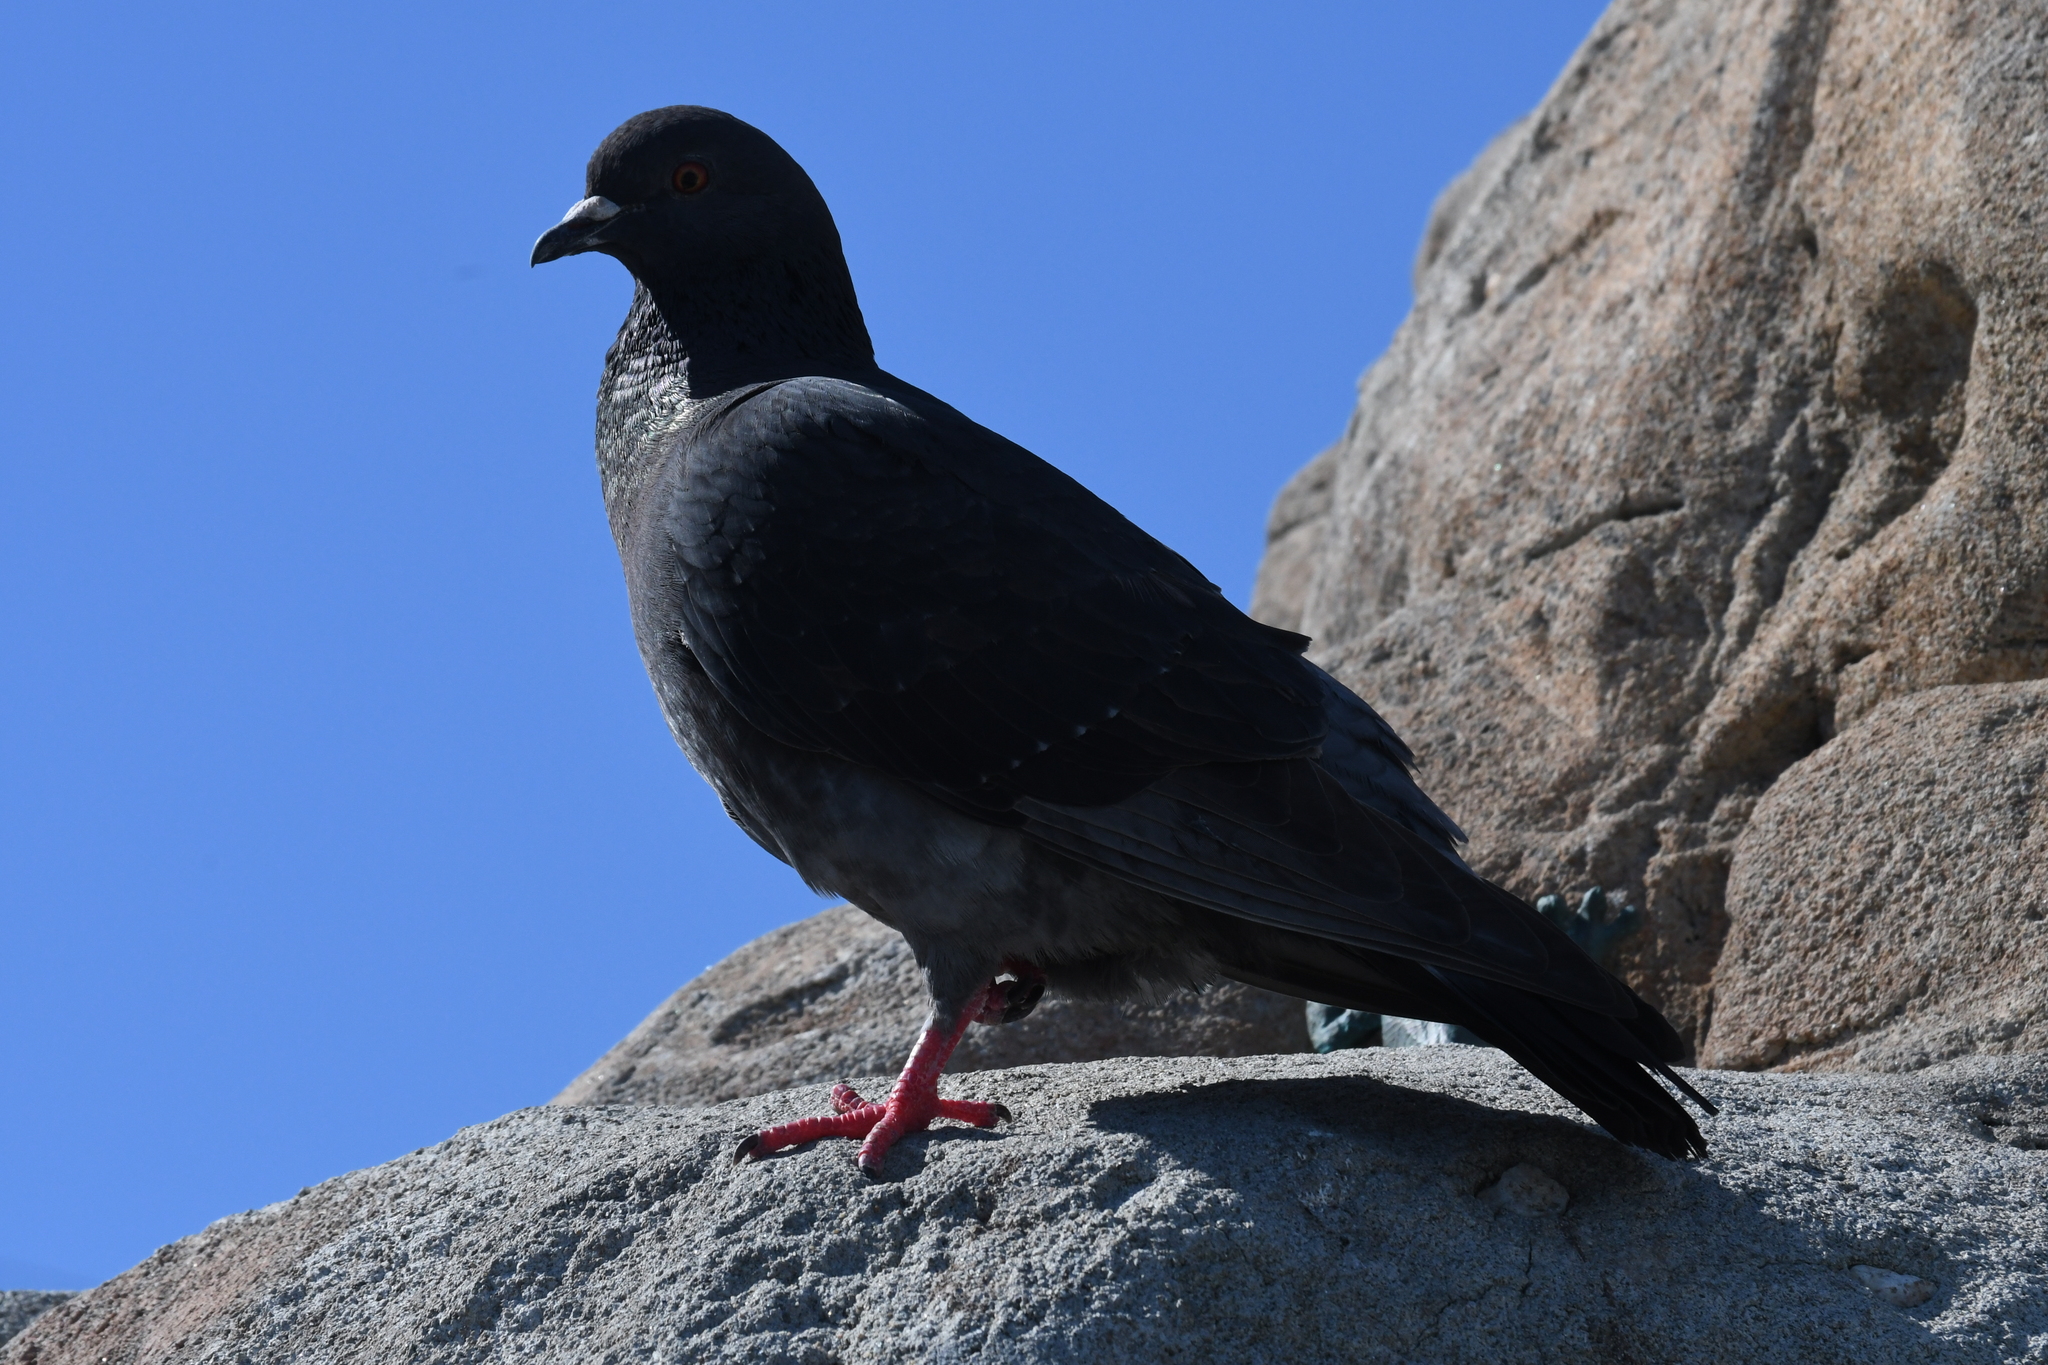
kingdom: Animalia
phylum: Chordata
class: Aves
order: Columbiformes
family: Columbidae
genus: Columba
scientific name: Columba livia
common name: Rock pigeon
